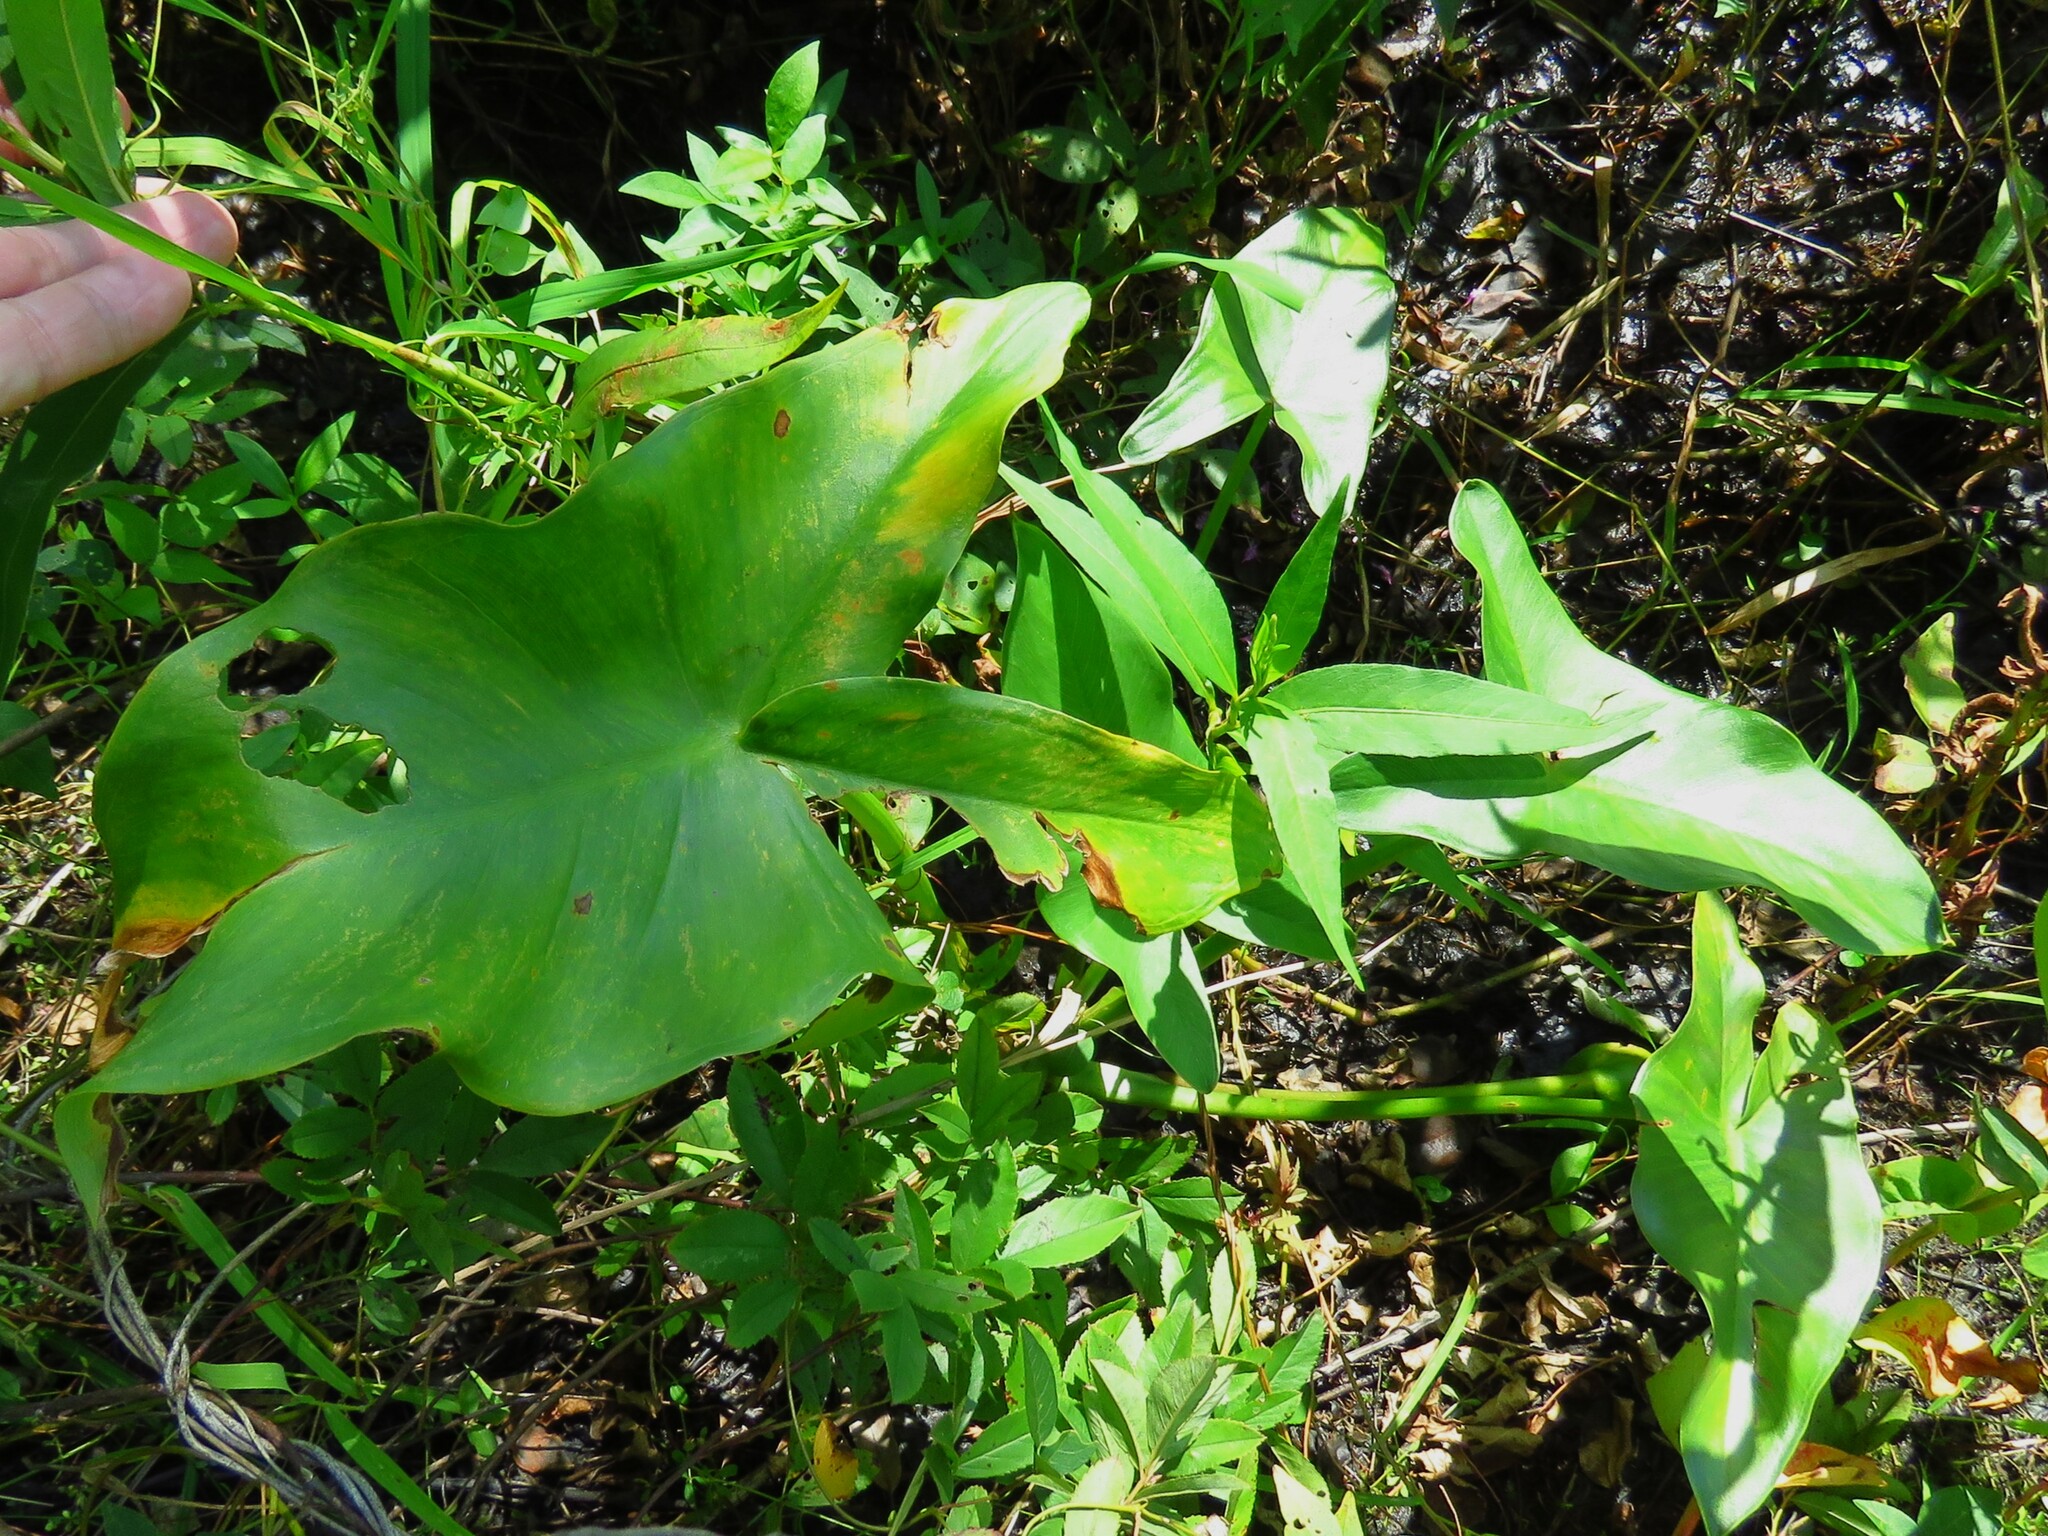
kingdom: Plantae
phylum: Tracheophyta
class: Liliopsida
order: Alismatales
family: Araceae
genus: Peltandra
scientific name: Peltandra virginica
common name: Arrow arum
